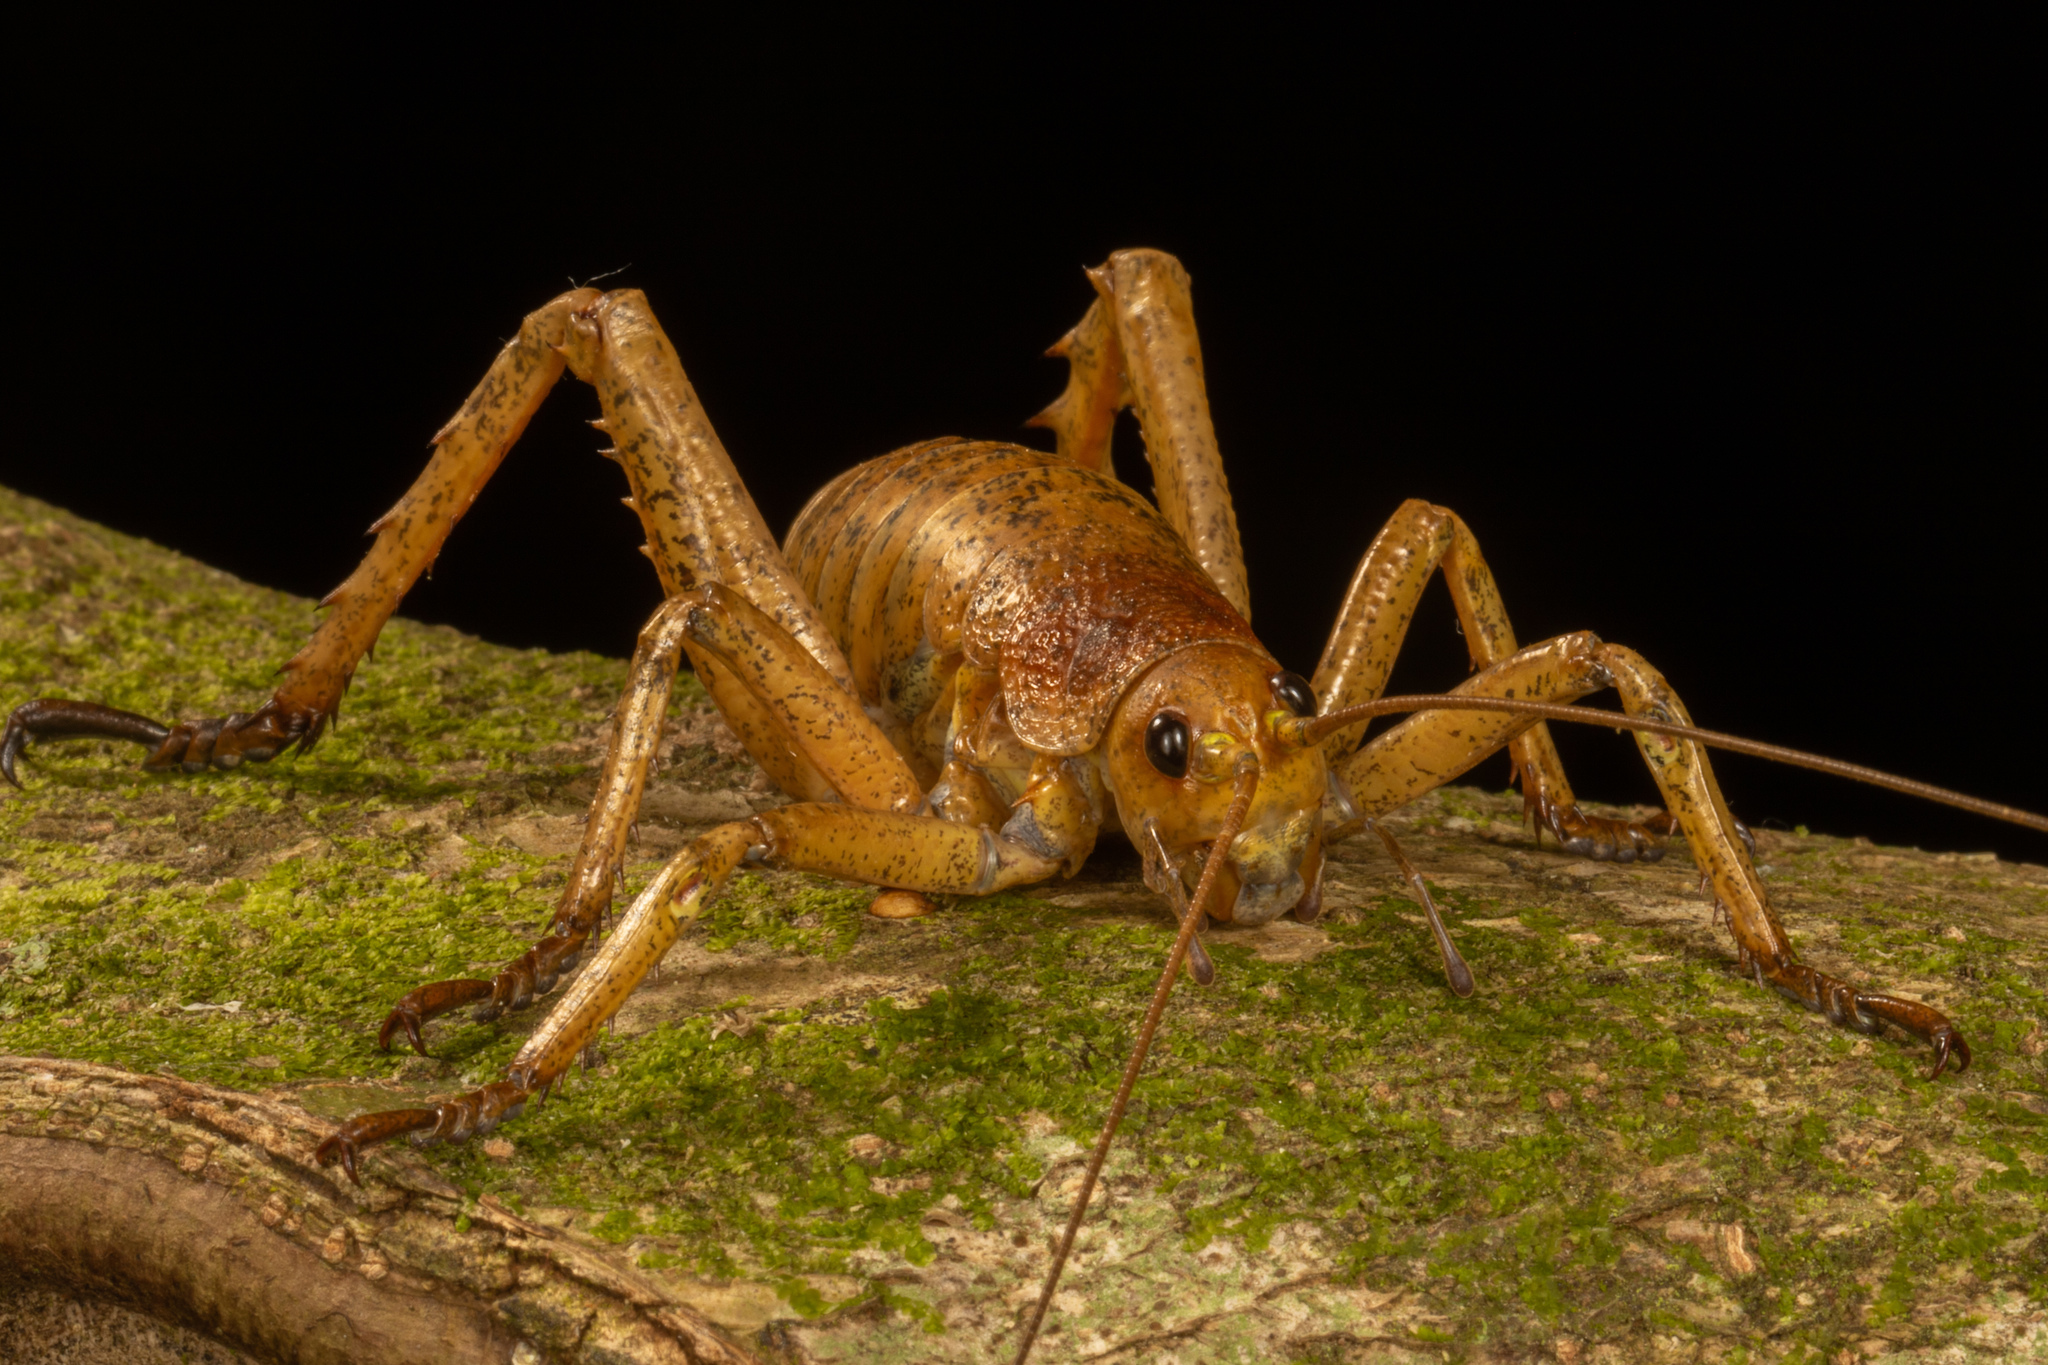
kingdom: Animalia
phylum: Arthropoda
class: Insecta
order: Orthoptera
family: Anostostomatidae
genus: Deinacrida
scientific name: Deinacrida heteracantha
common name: Wetapunga
